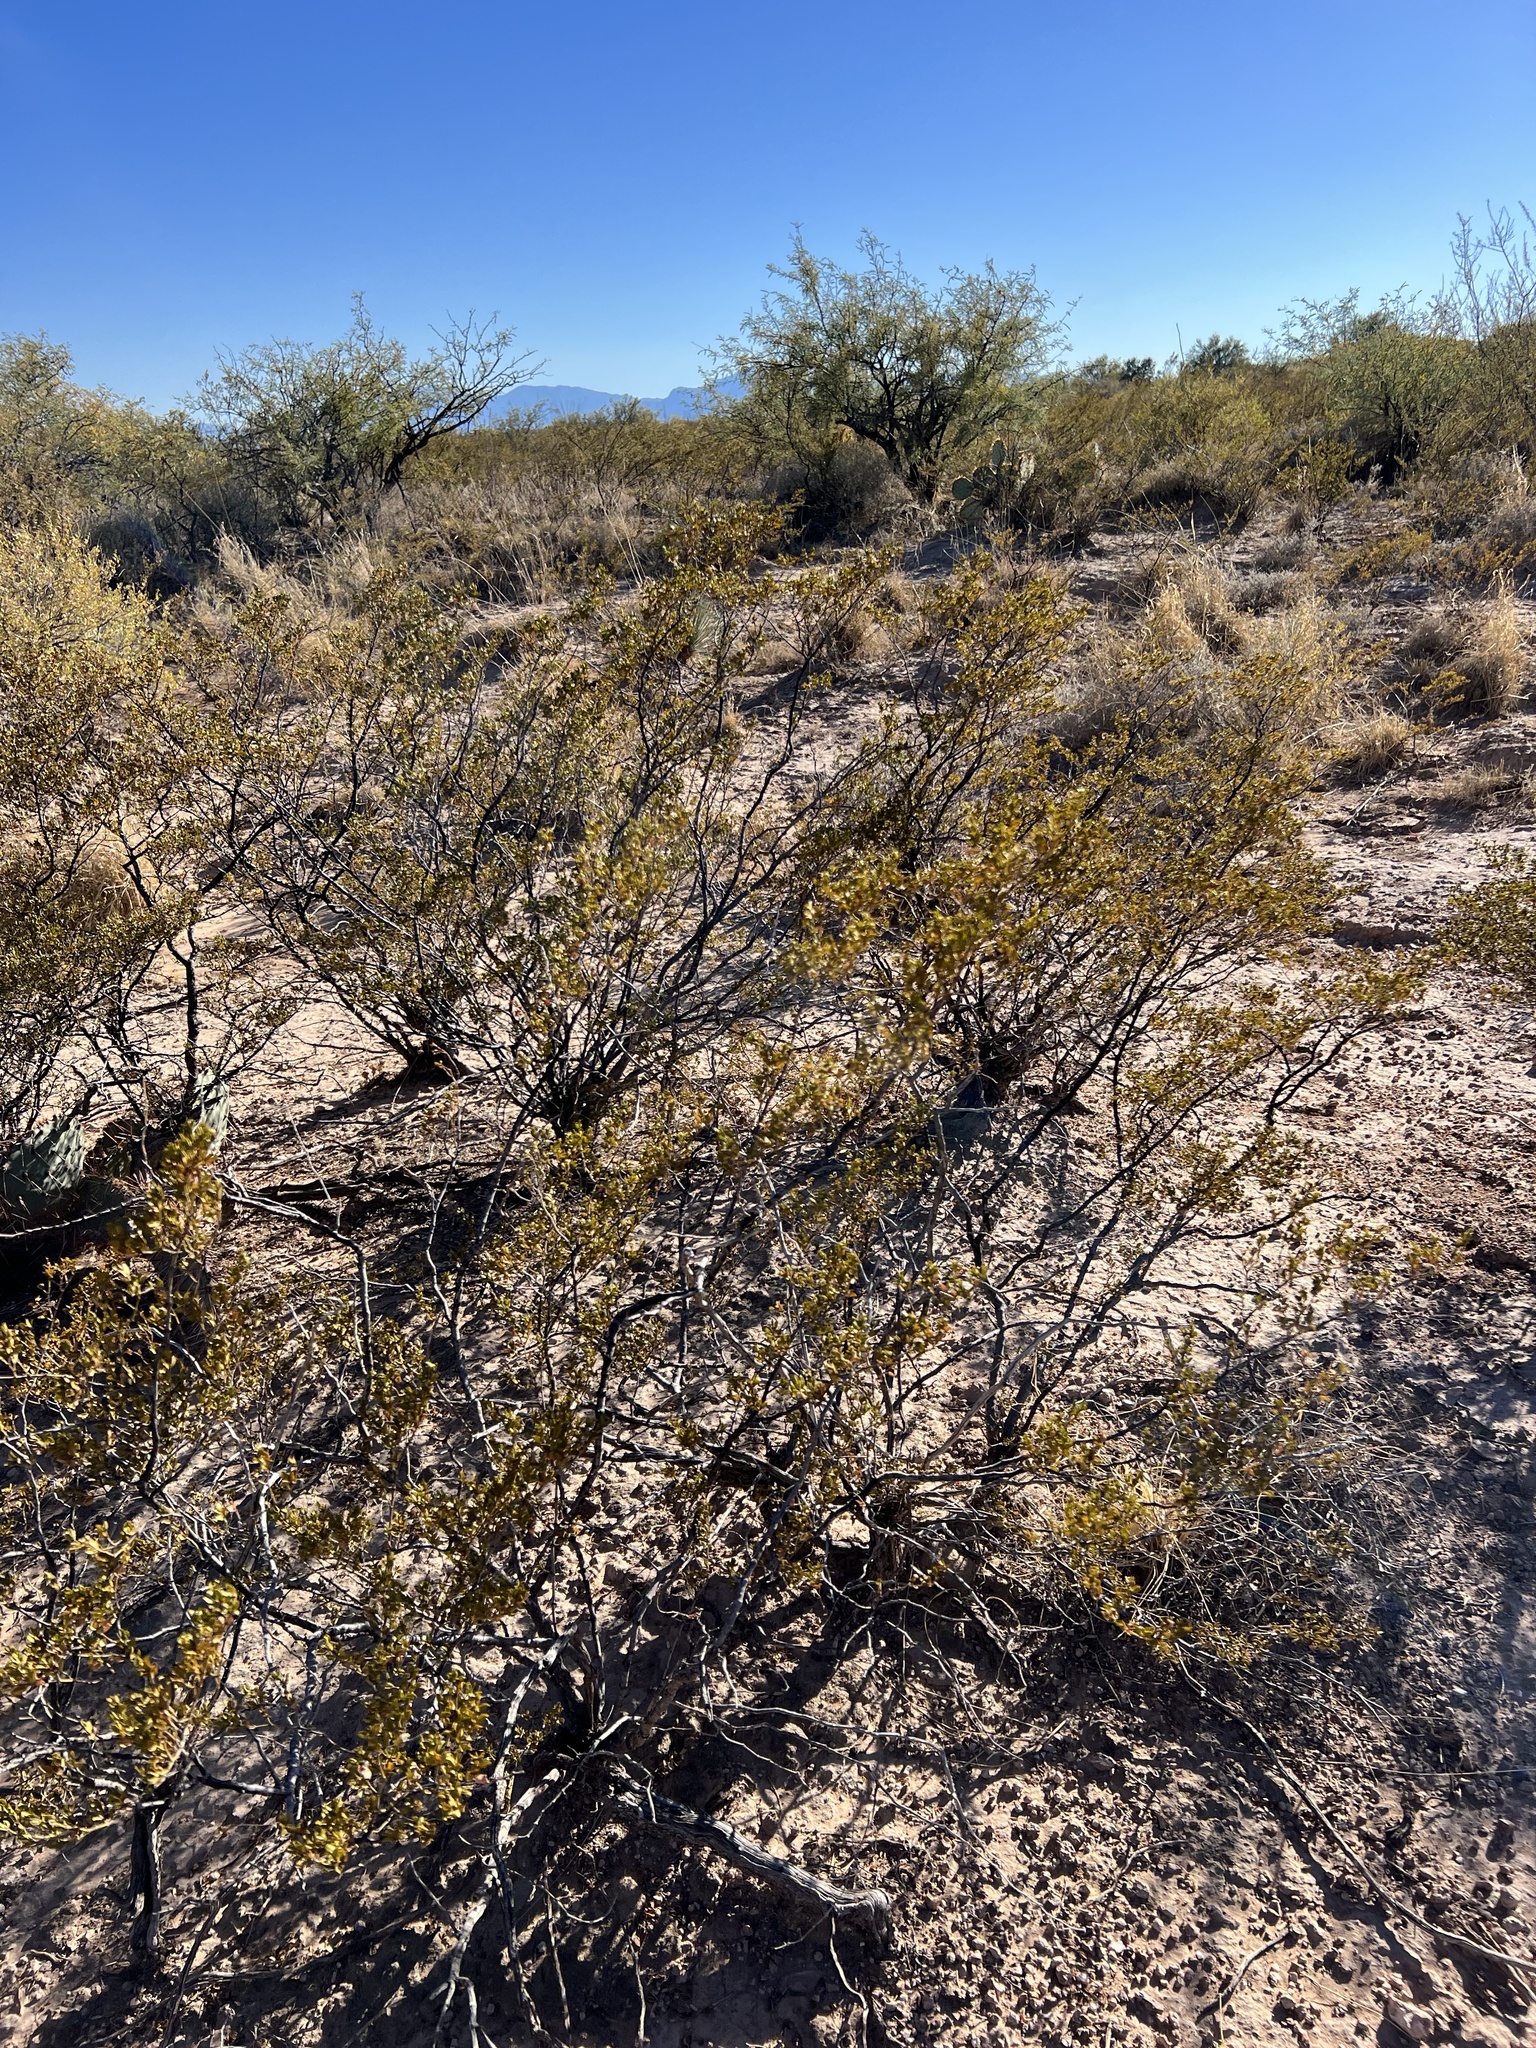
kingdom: Plantae
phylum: Tracheophyta
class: Magnoliopsida
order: Zygophyllales
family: Zygophyllaceae
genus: Larrea
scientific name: Larrea tridentata
